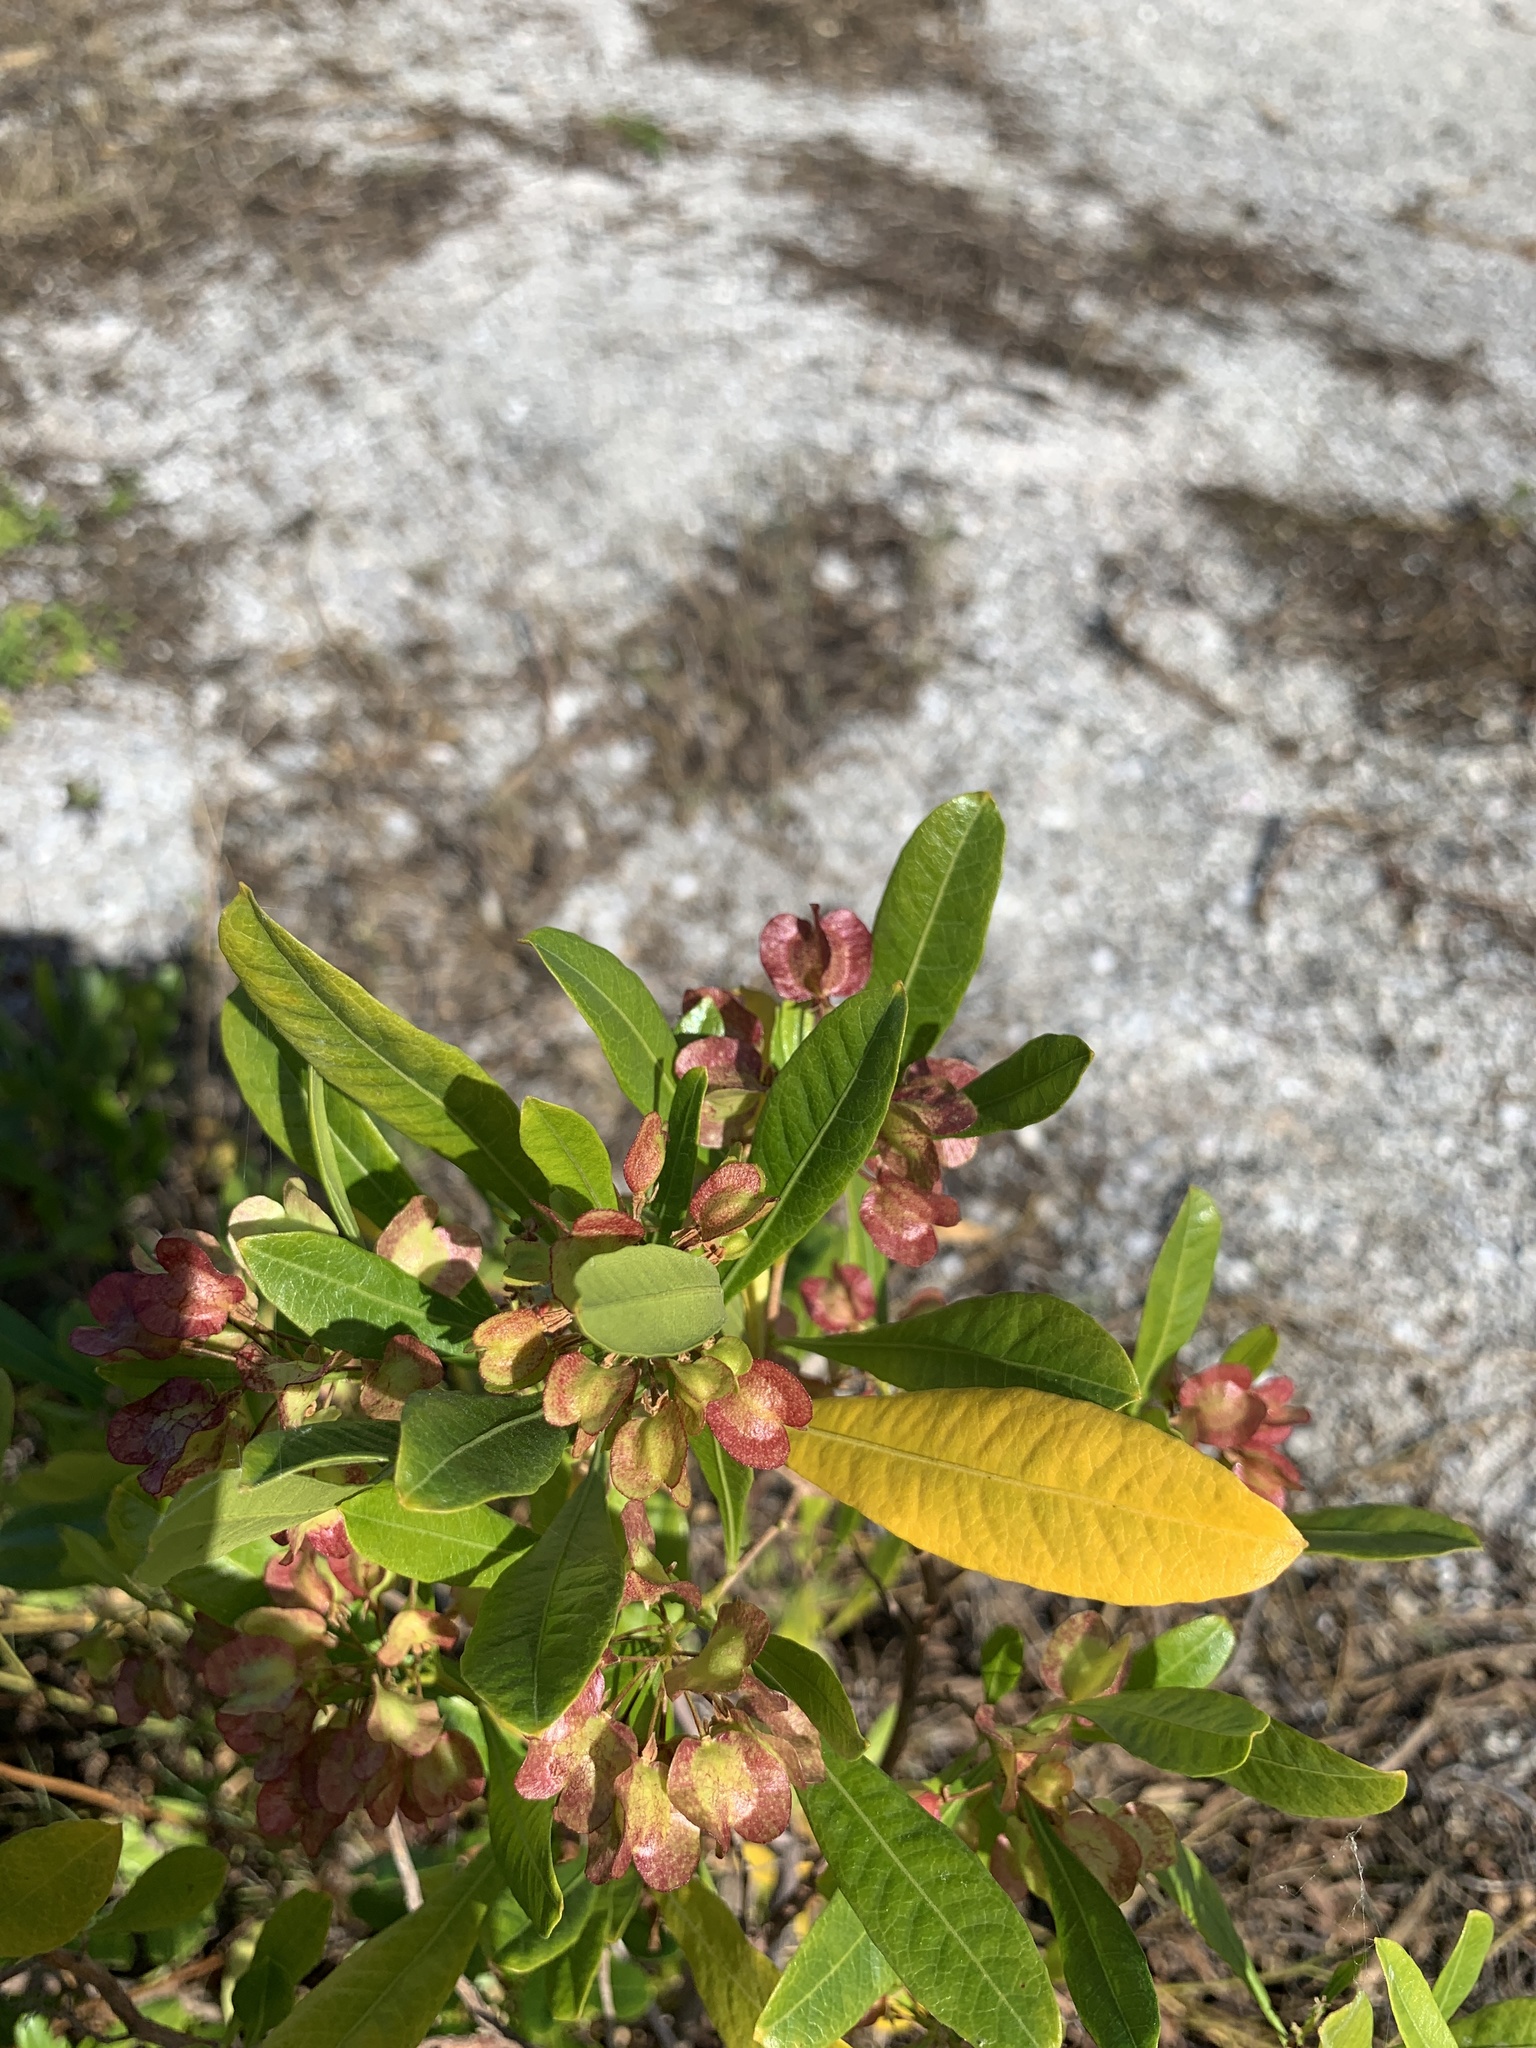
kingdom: Plantae
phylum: Tracheophyta
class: Magnoliopsida
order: Sapindales
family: Sapindaceae
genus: Dodonaea
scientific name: Dodonaea viscosa
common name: Hopbush
